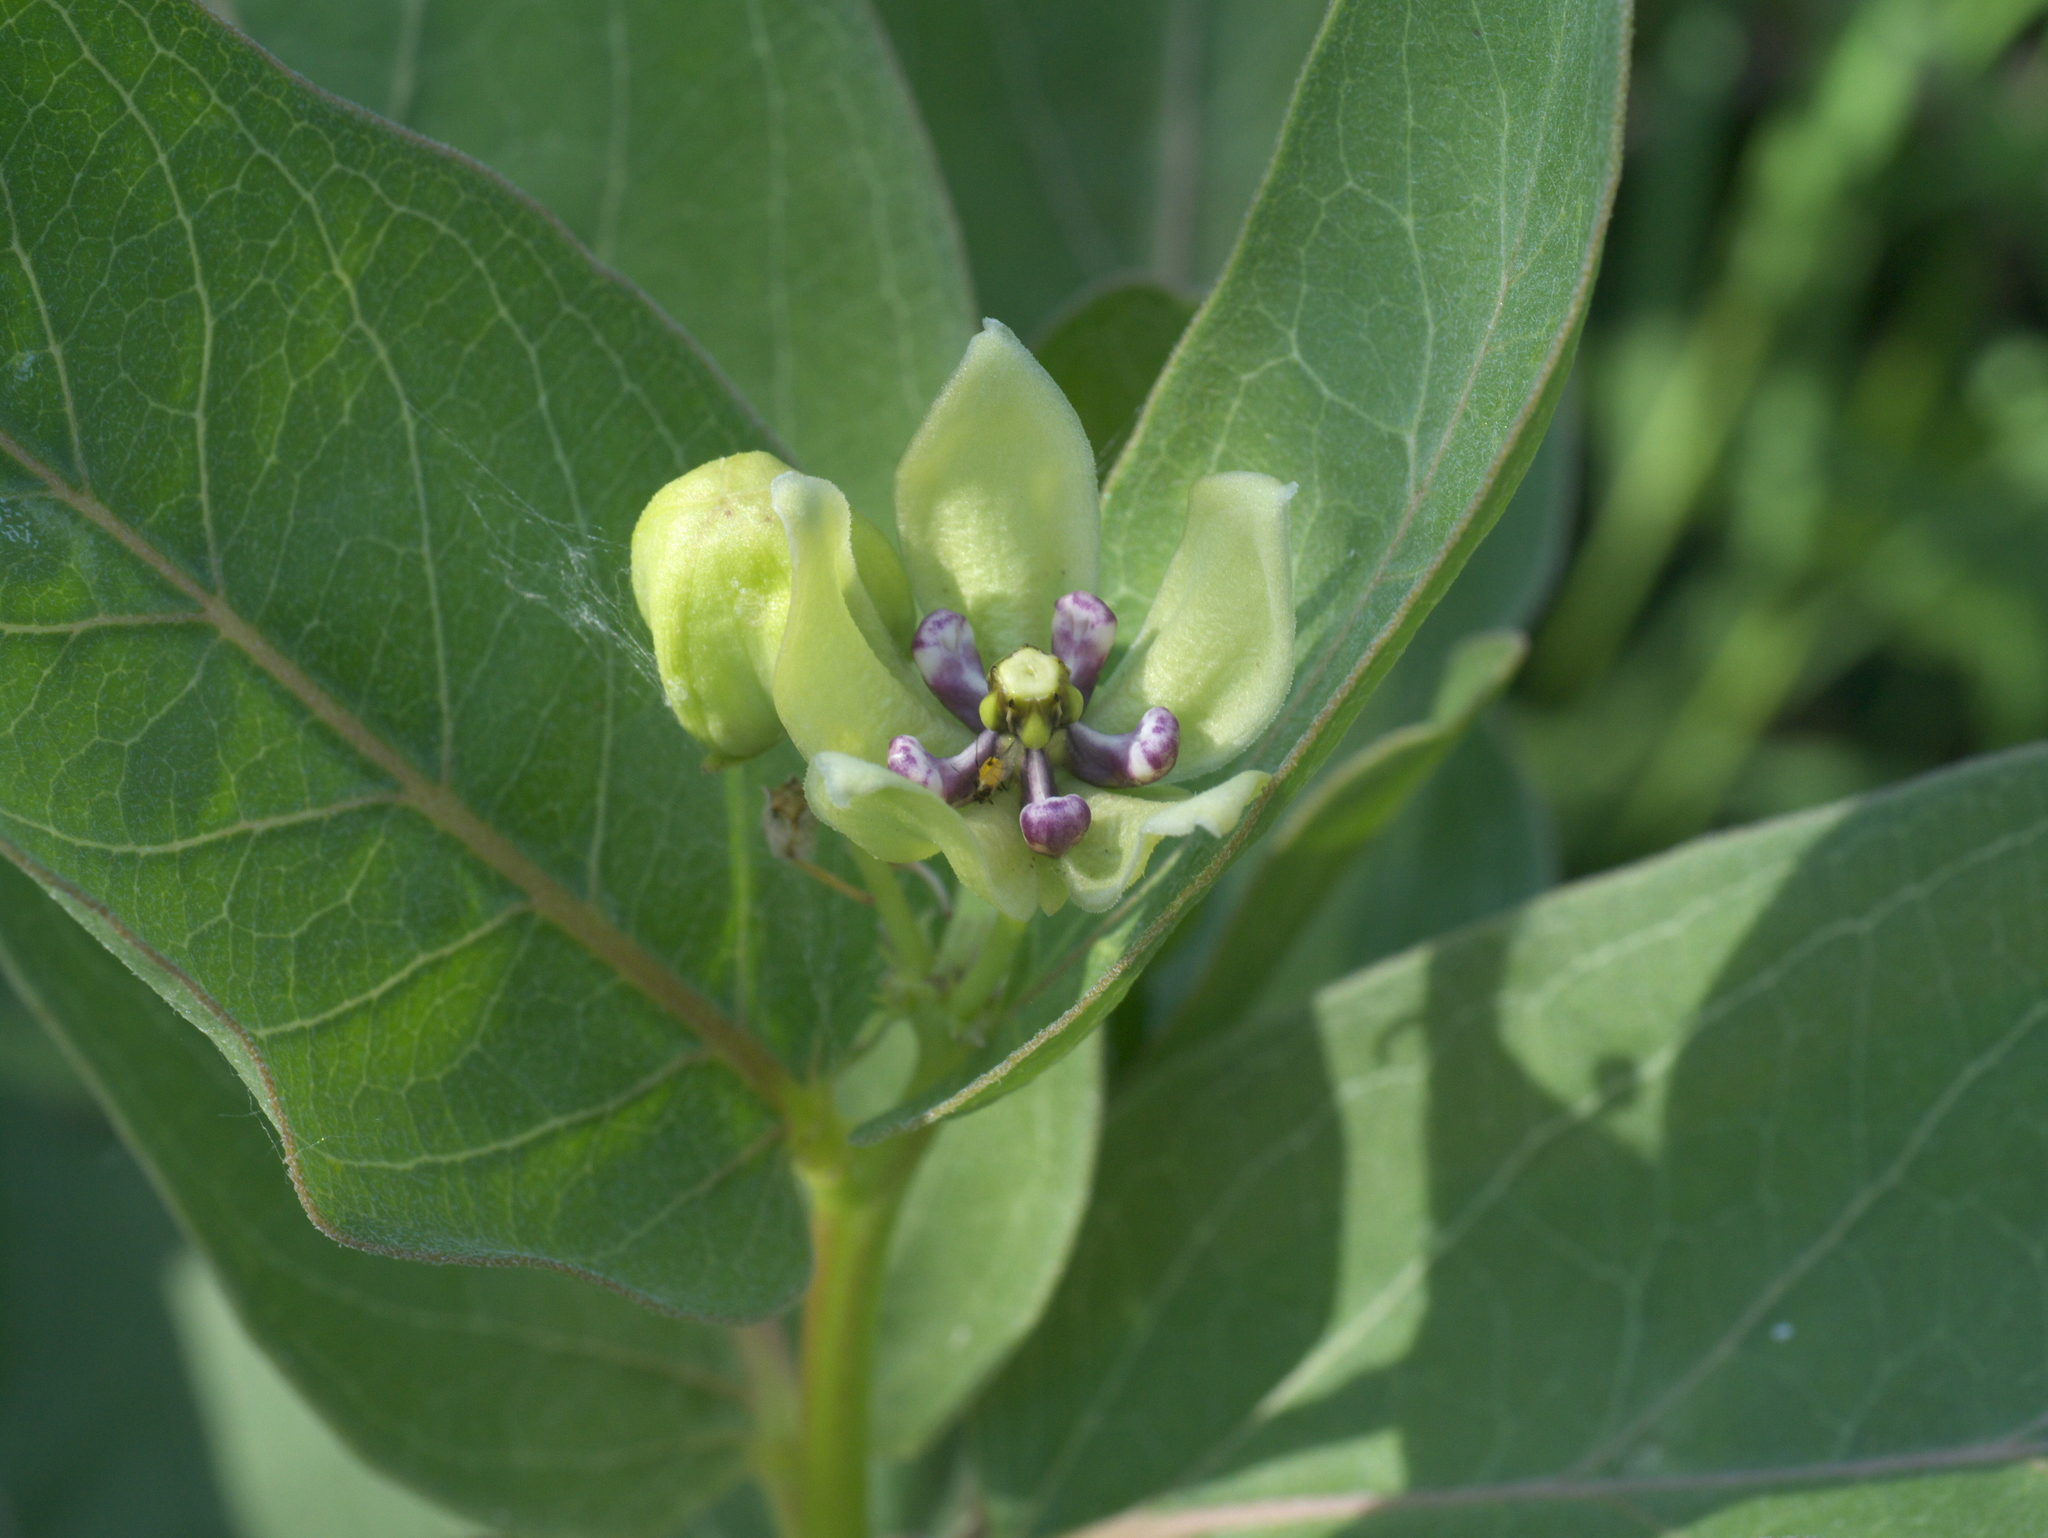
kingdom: Plantae
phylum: Tracheophyta
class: Magnoliopsida
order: Gentianales
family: Apocynaceae
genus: Asclepias
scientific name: Asclepias viridis
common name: Antelope-horns
